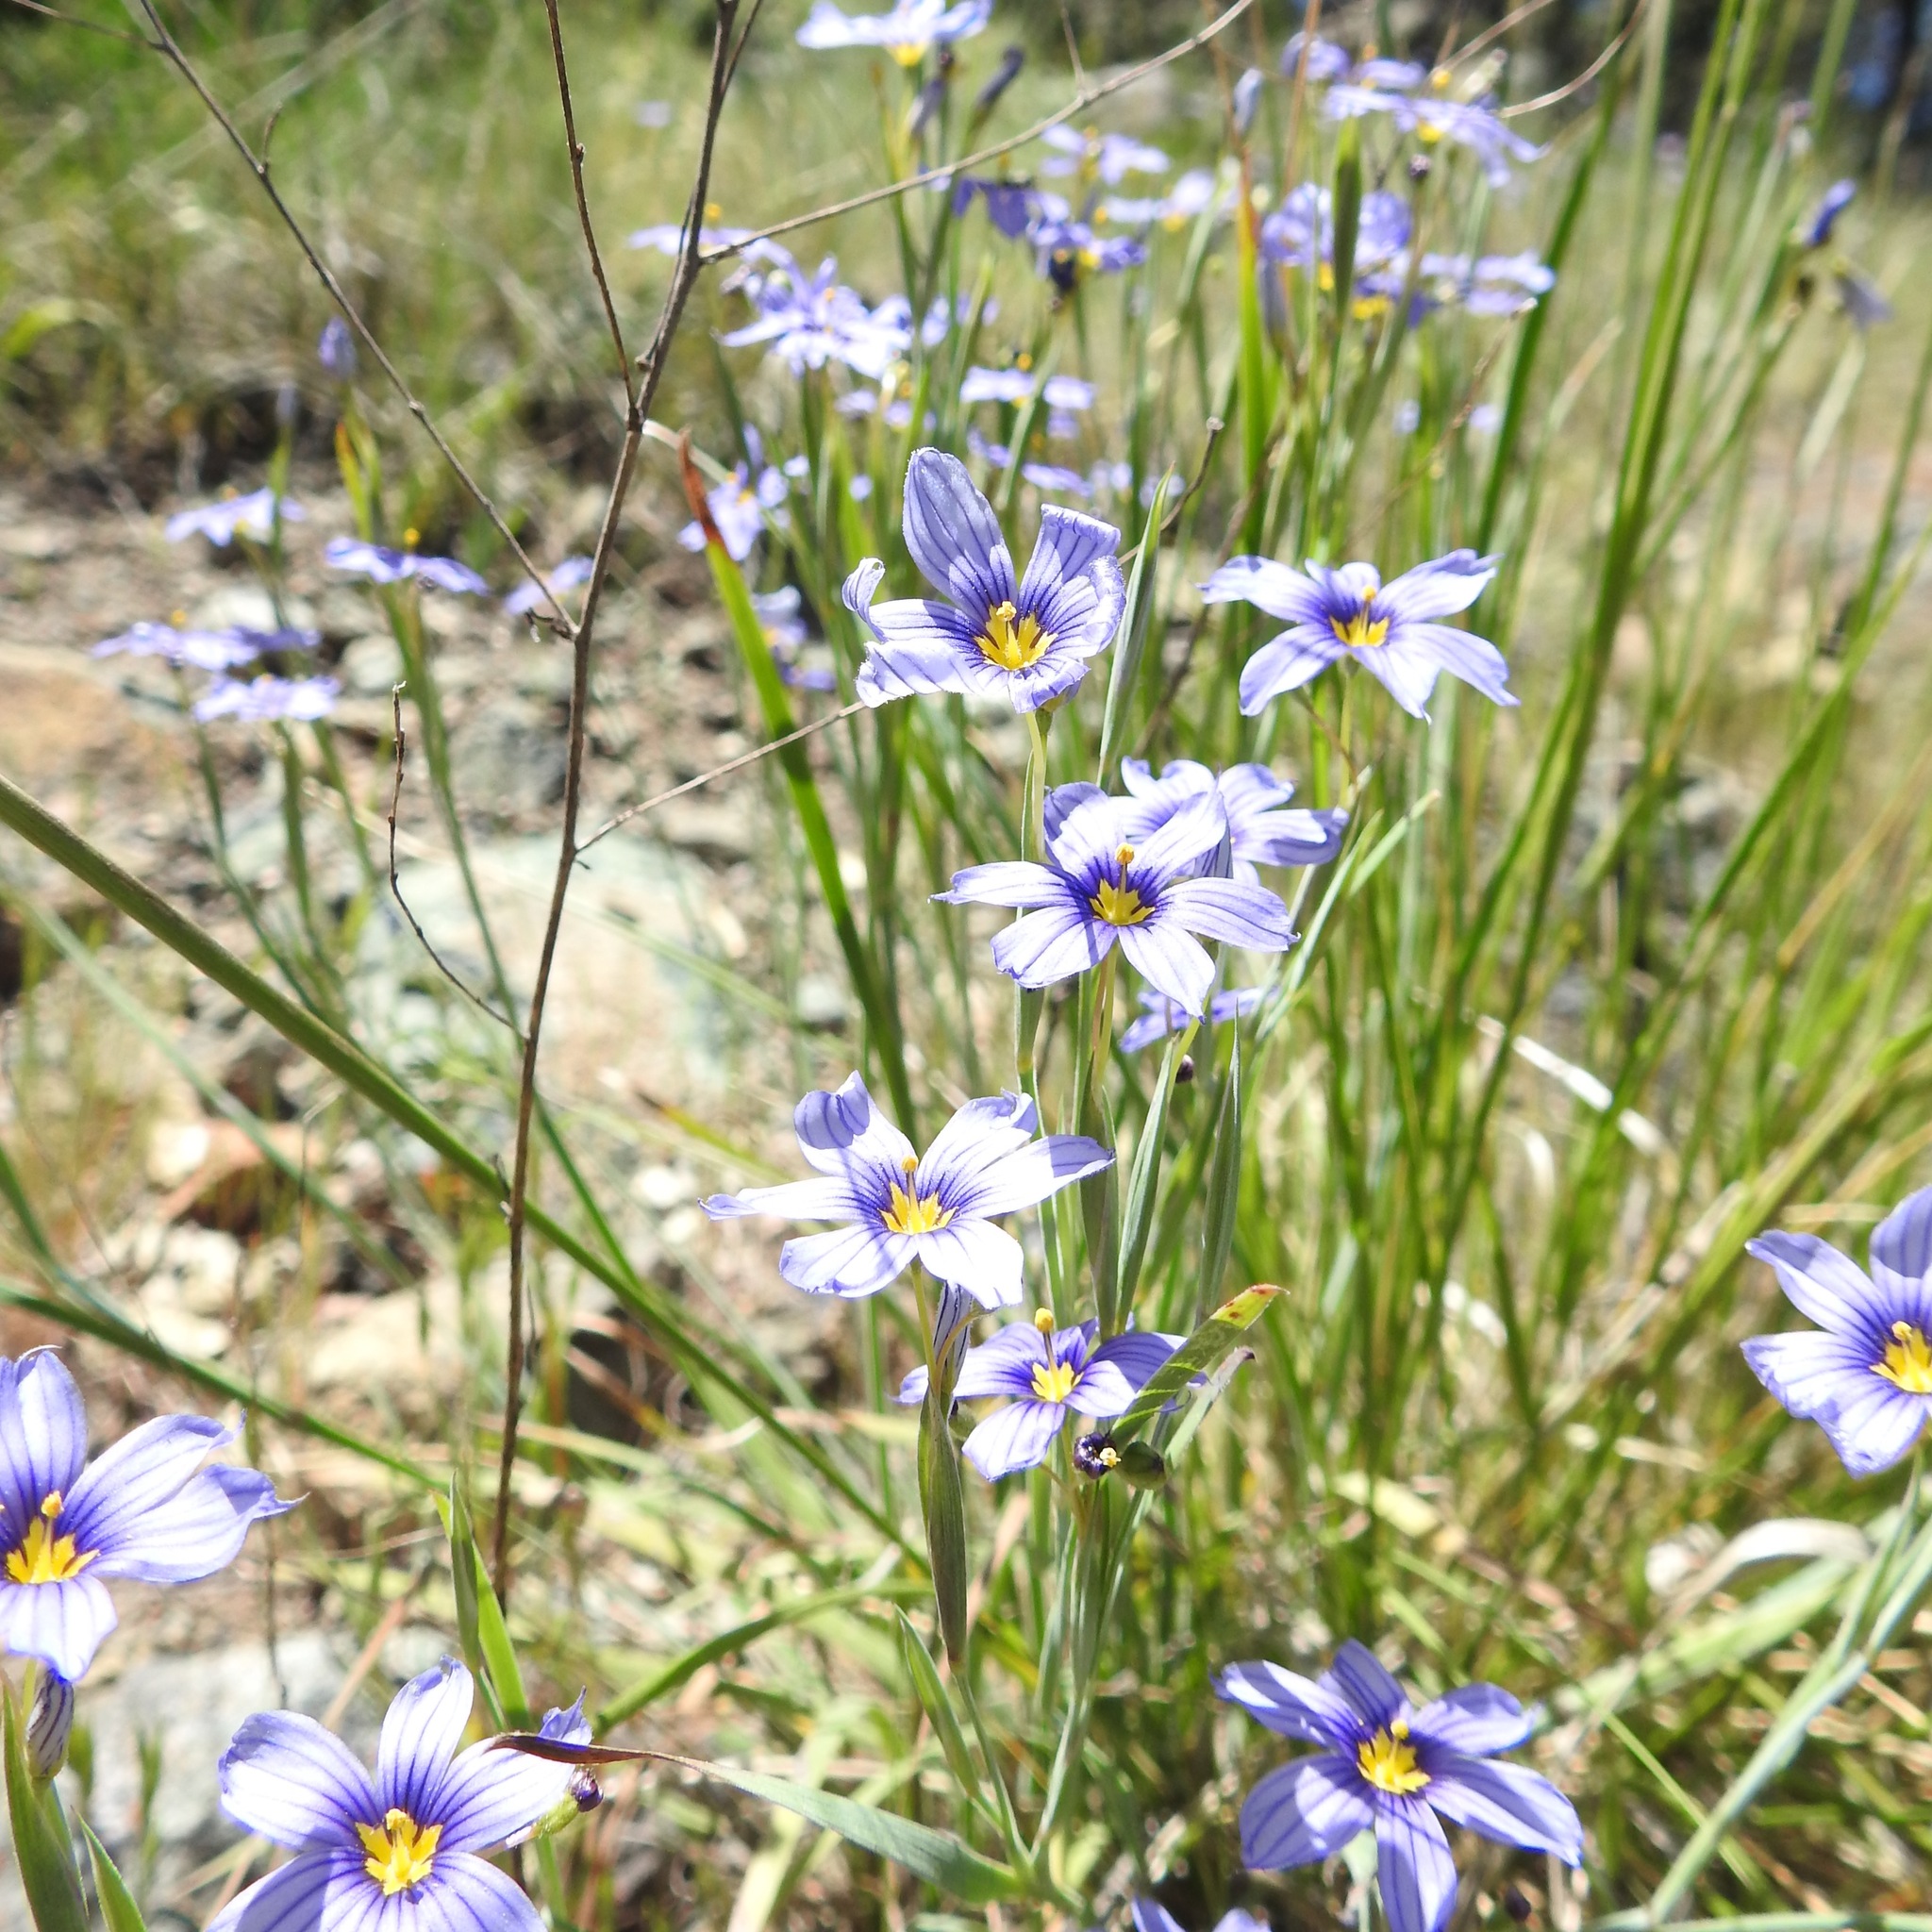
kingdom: Plantae
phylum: Tracheophyta
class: Liliopsida
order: Asparagales
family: Iridaceae
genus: Sisyrinchium
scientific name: Sisyrinchium bellum
